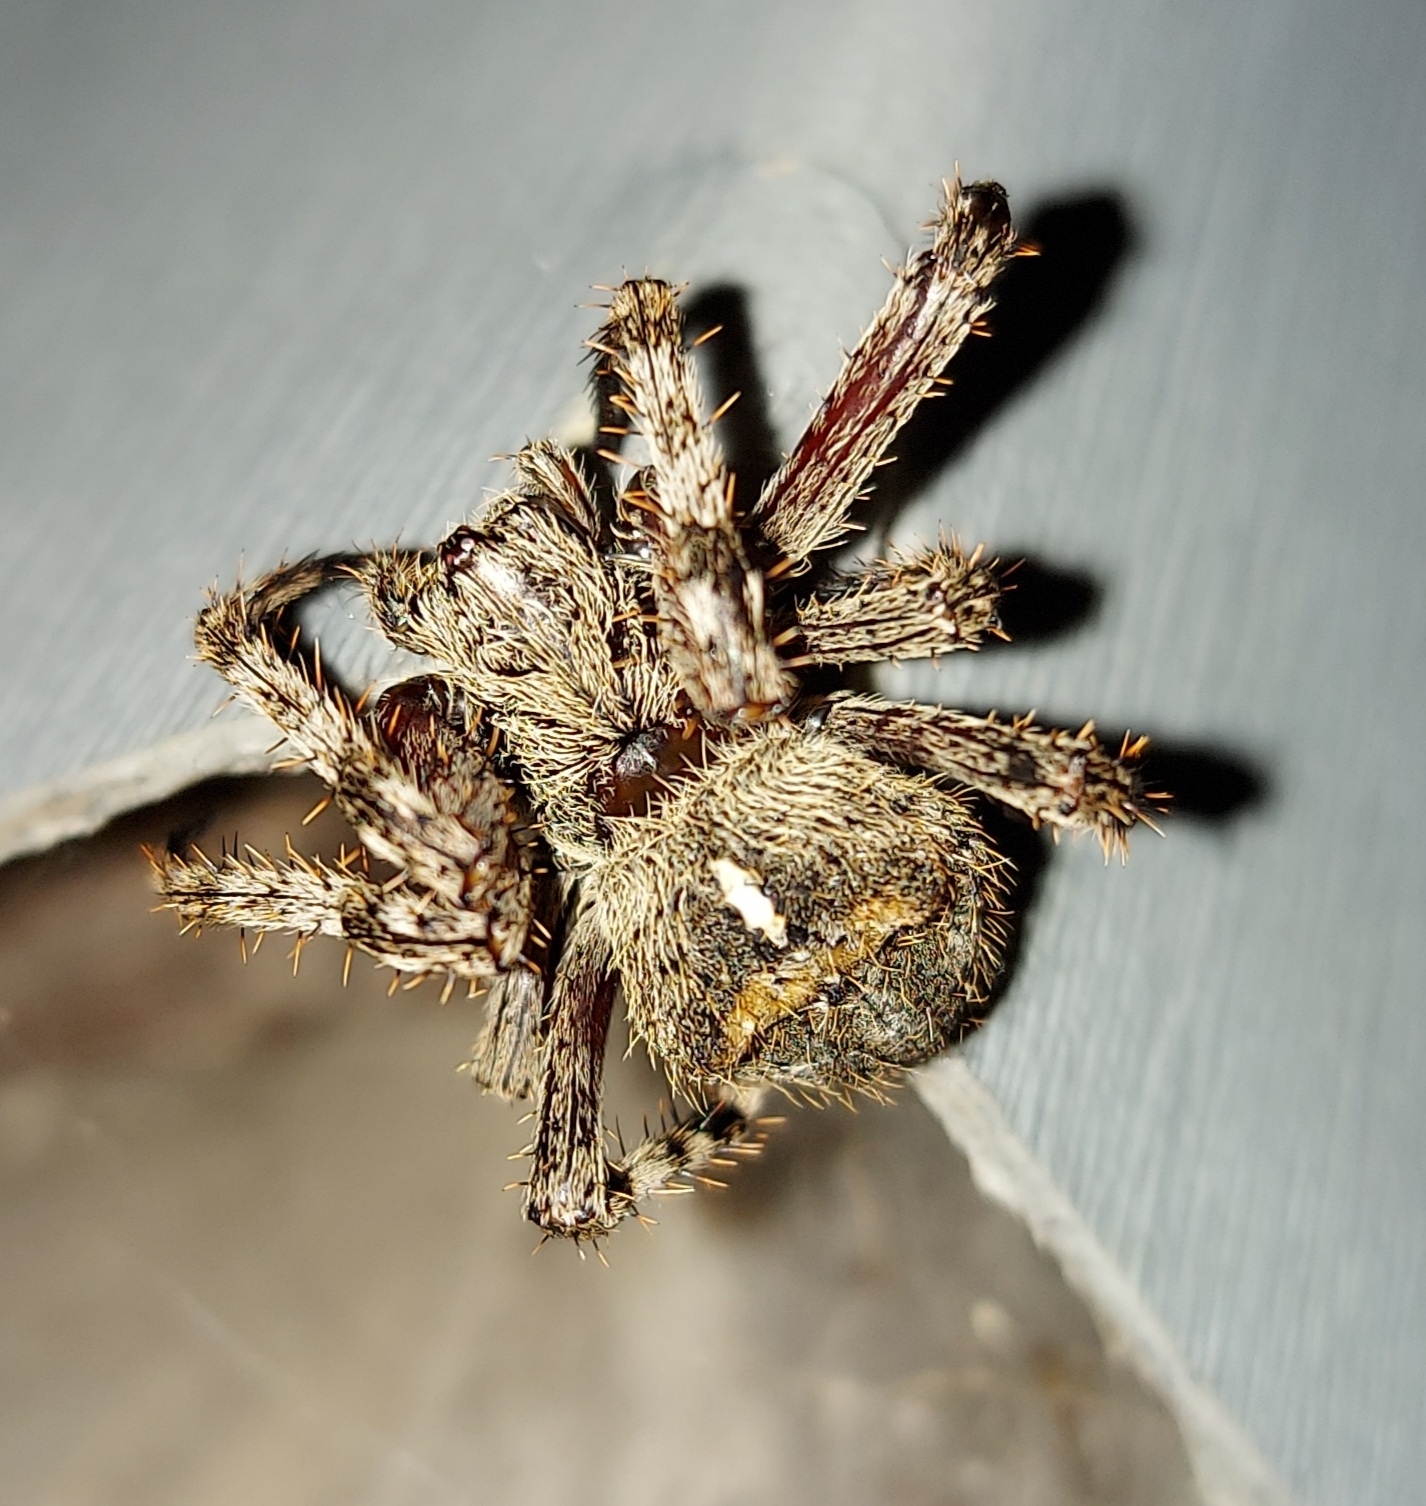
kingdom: Animalia
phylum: Arthropoda
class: Arachnida
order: Araneae
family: Araneidae
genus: Araneus
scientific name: Araneus saevus
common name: Fierce orbweaver
